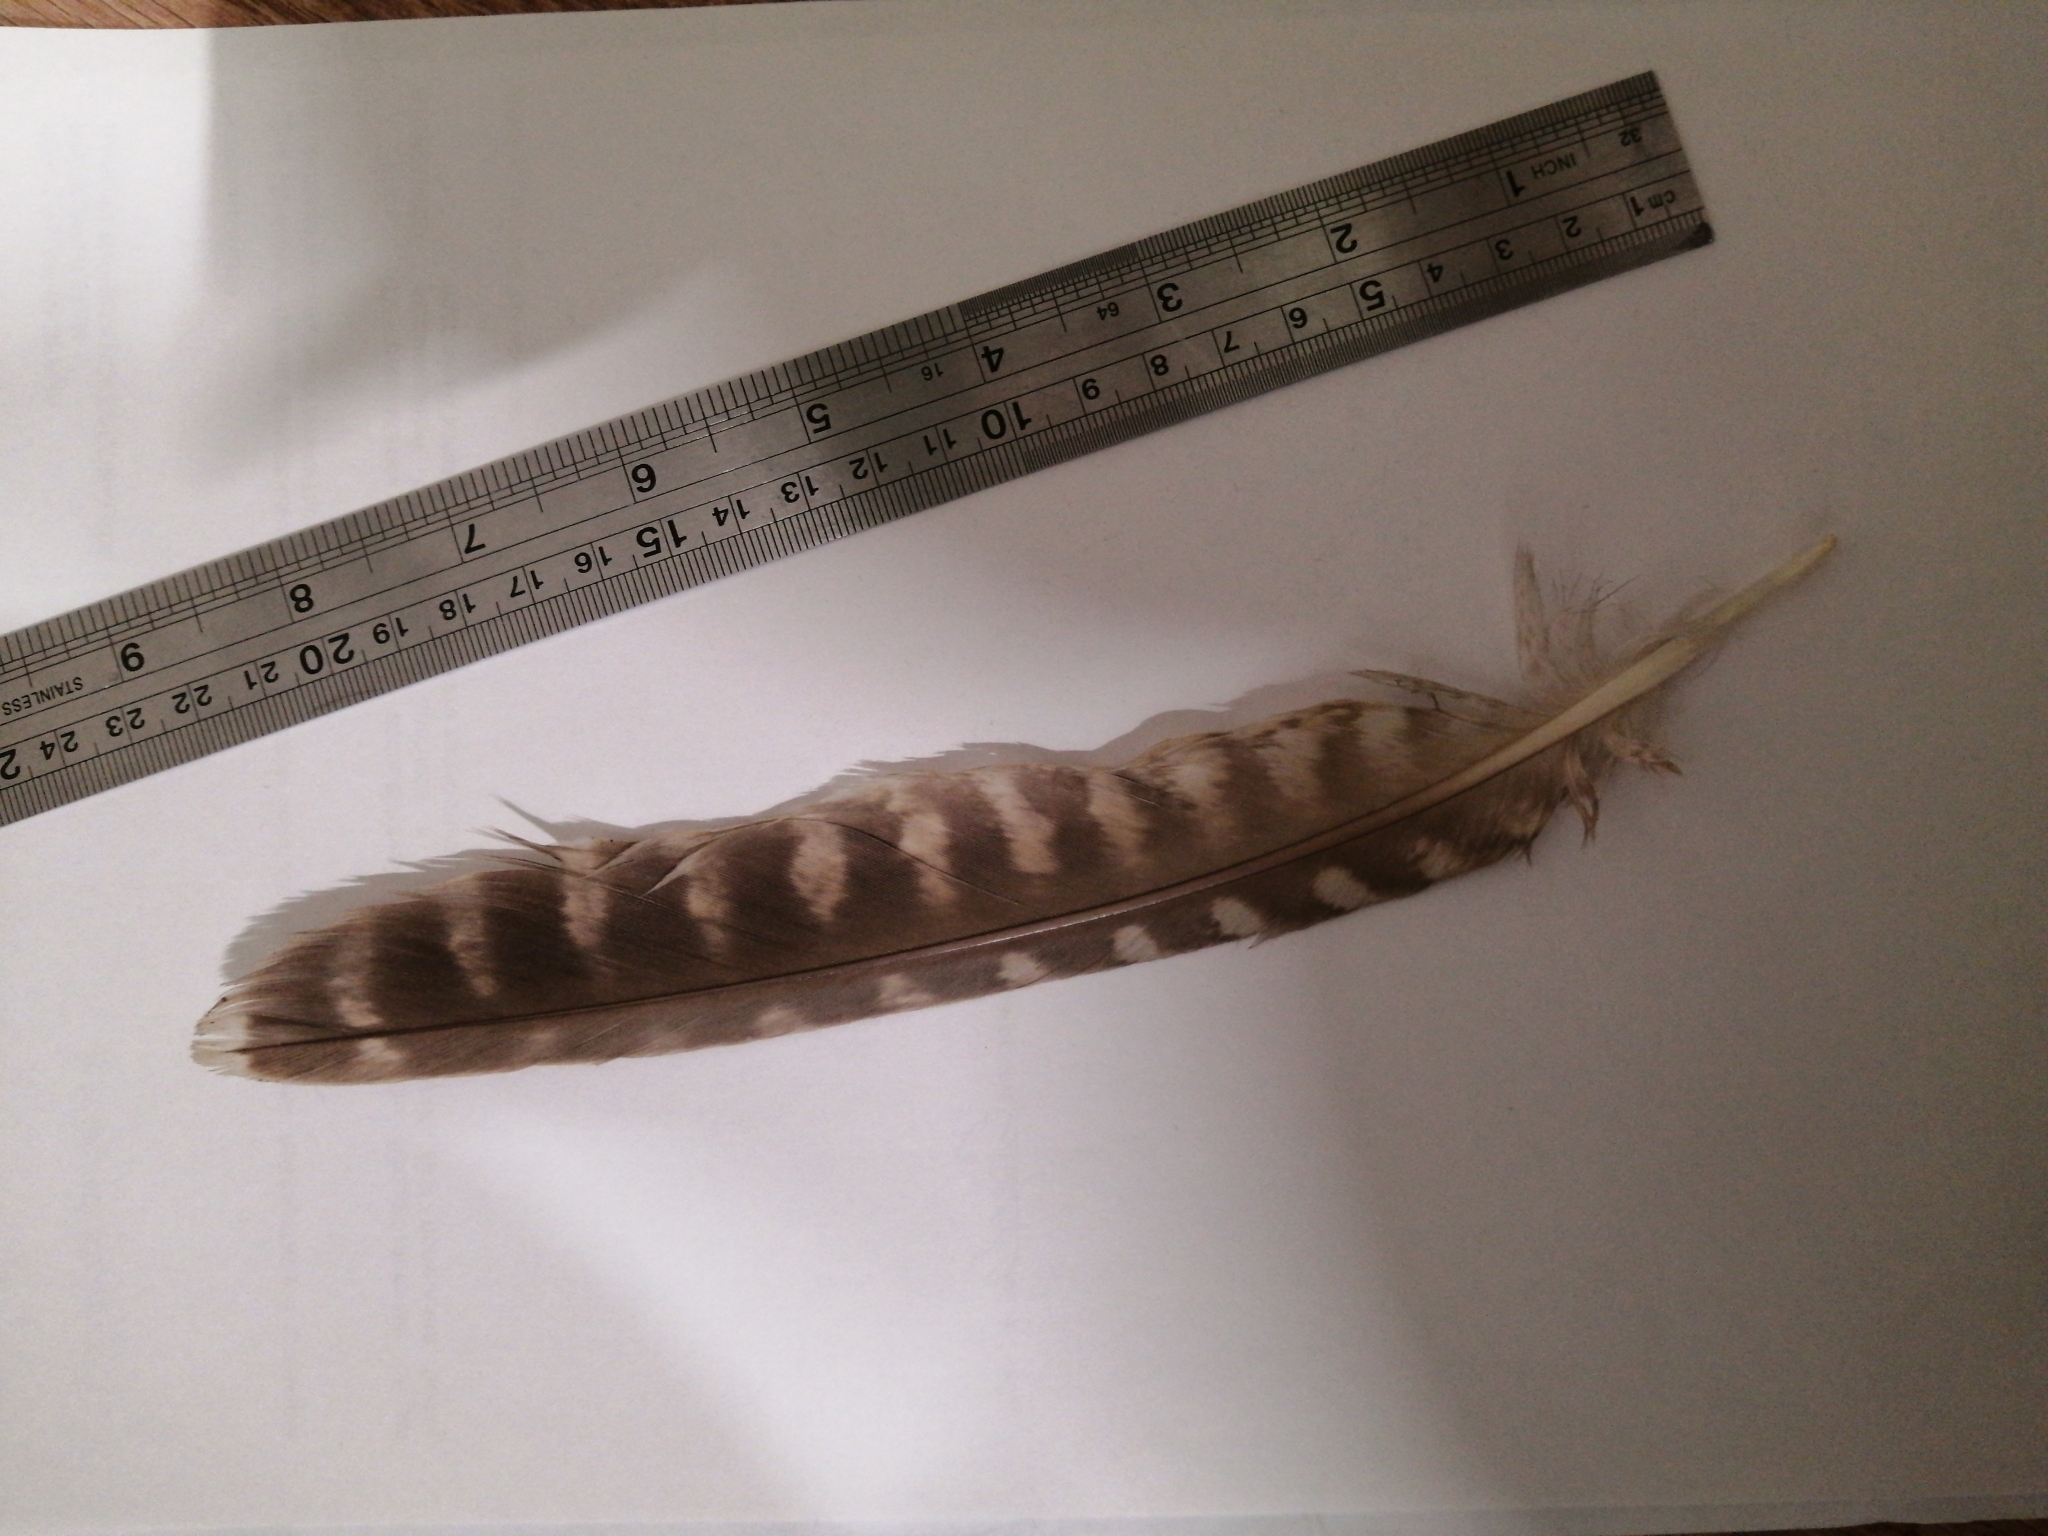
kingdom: Animalia
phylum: Chordata
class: Aves
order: Falconiformes
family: Falconidae
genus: Falco
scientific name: Falco tinnunculus
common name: Common kestrel
